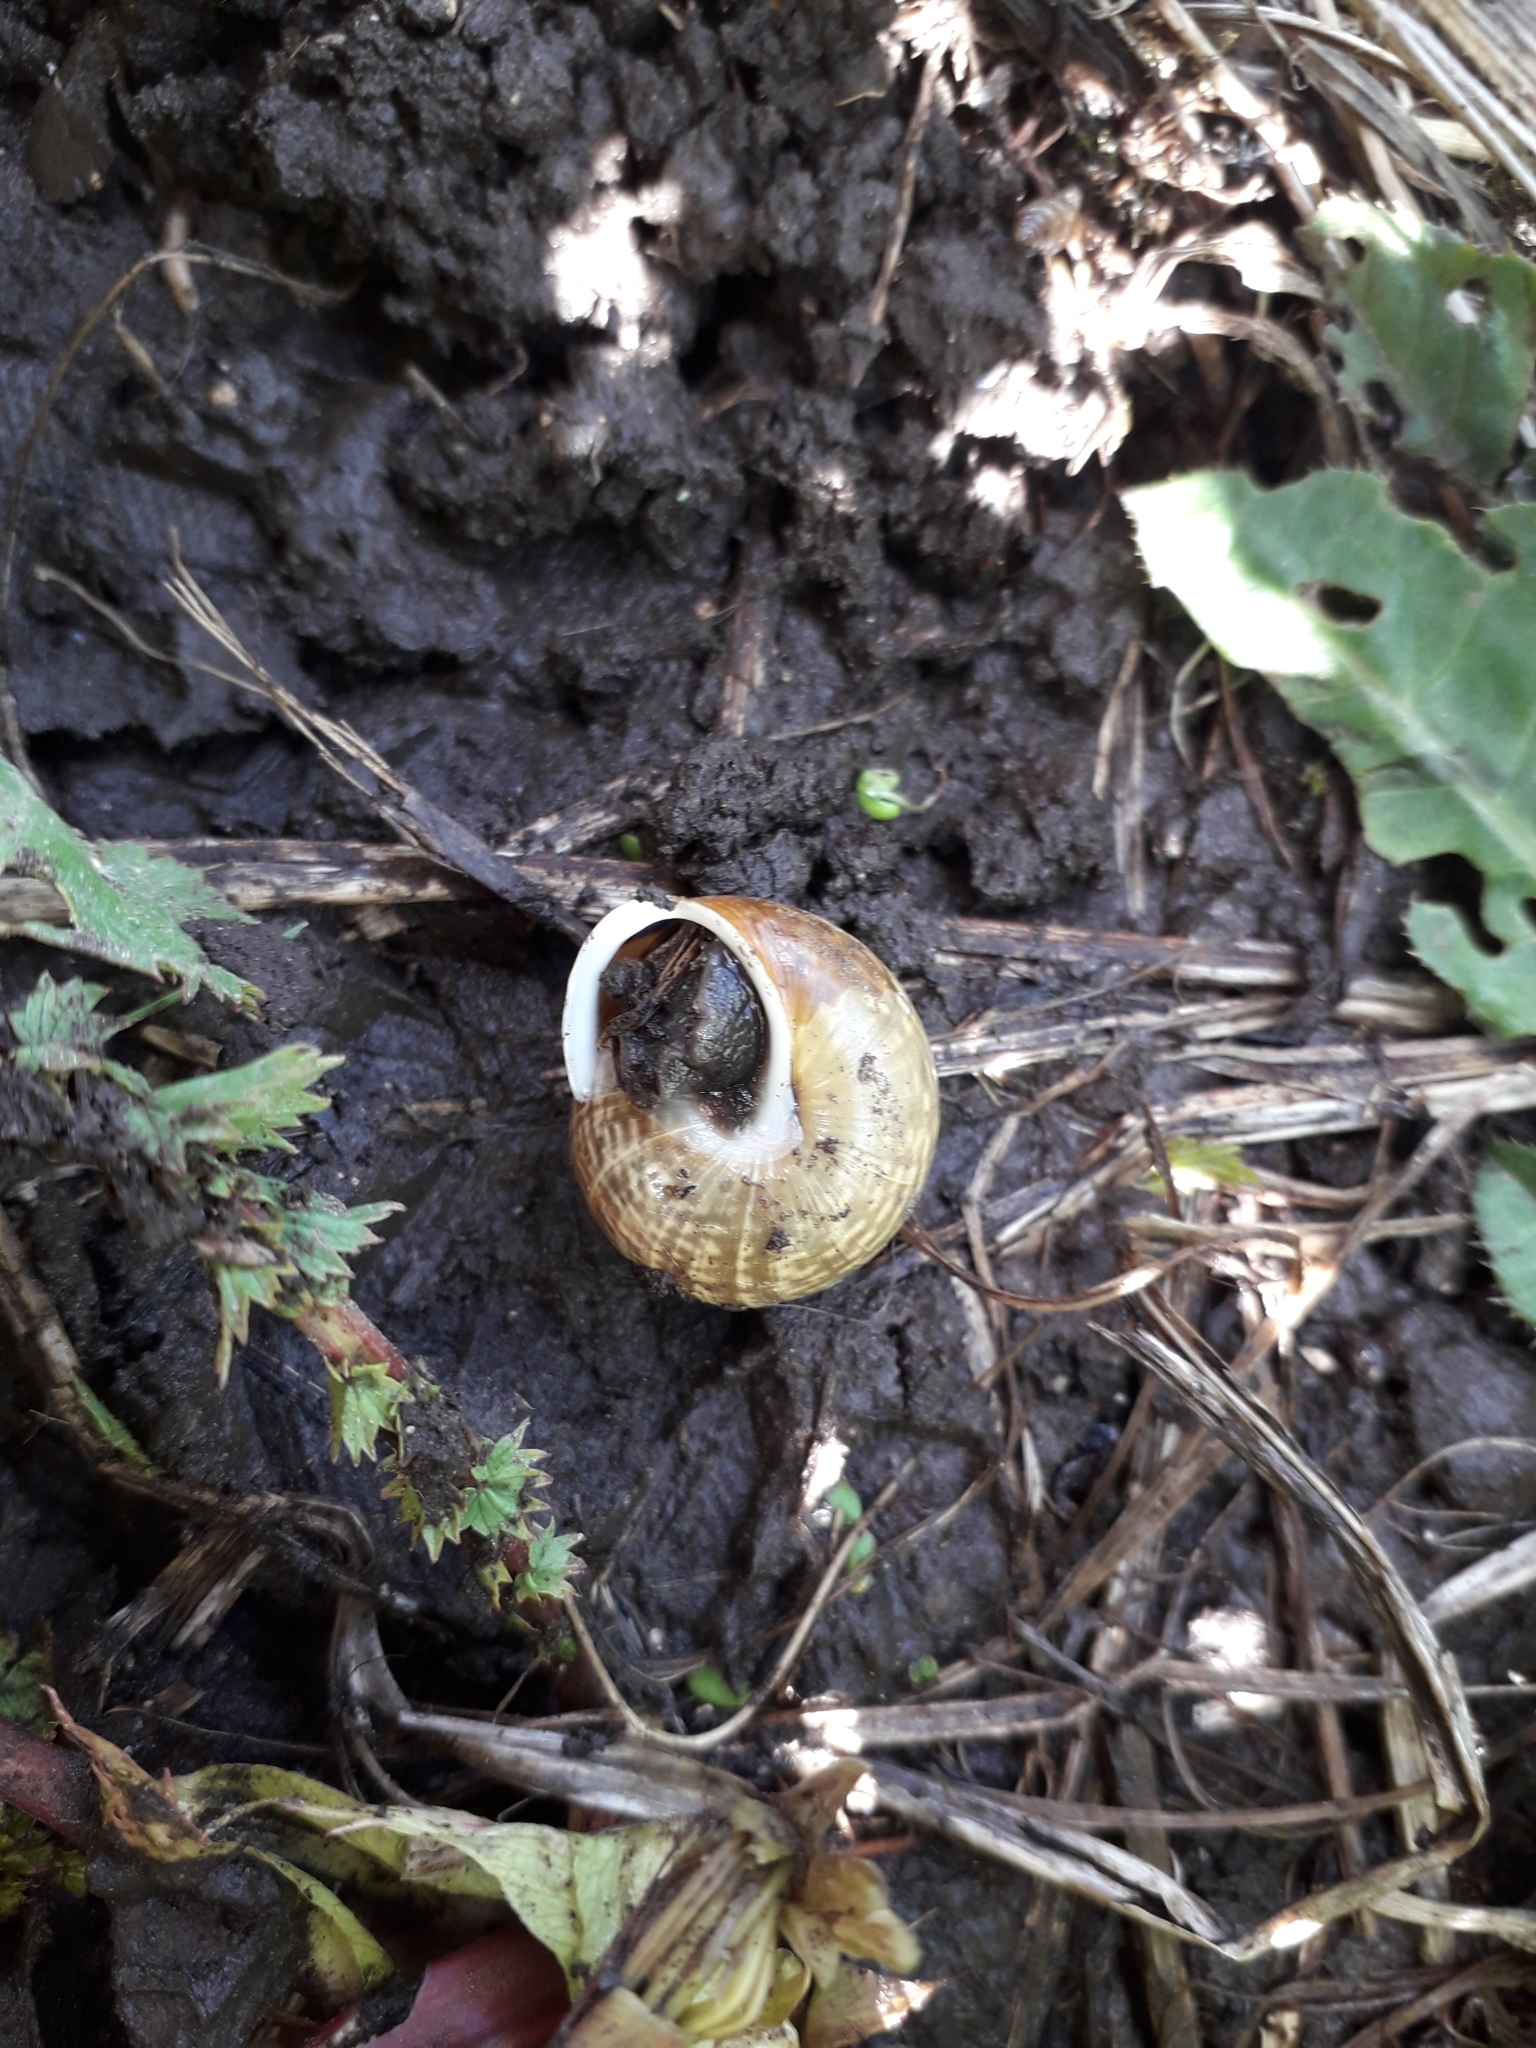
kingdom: Animalia
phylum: Mollusca
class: Gastropoda
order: Stylommatophora
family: Helicidae
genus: Arianta
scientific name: Arianta arbustorum
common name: Copse snail
